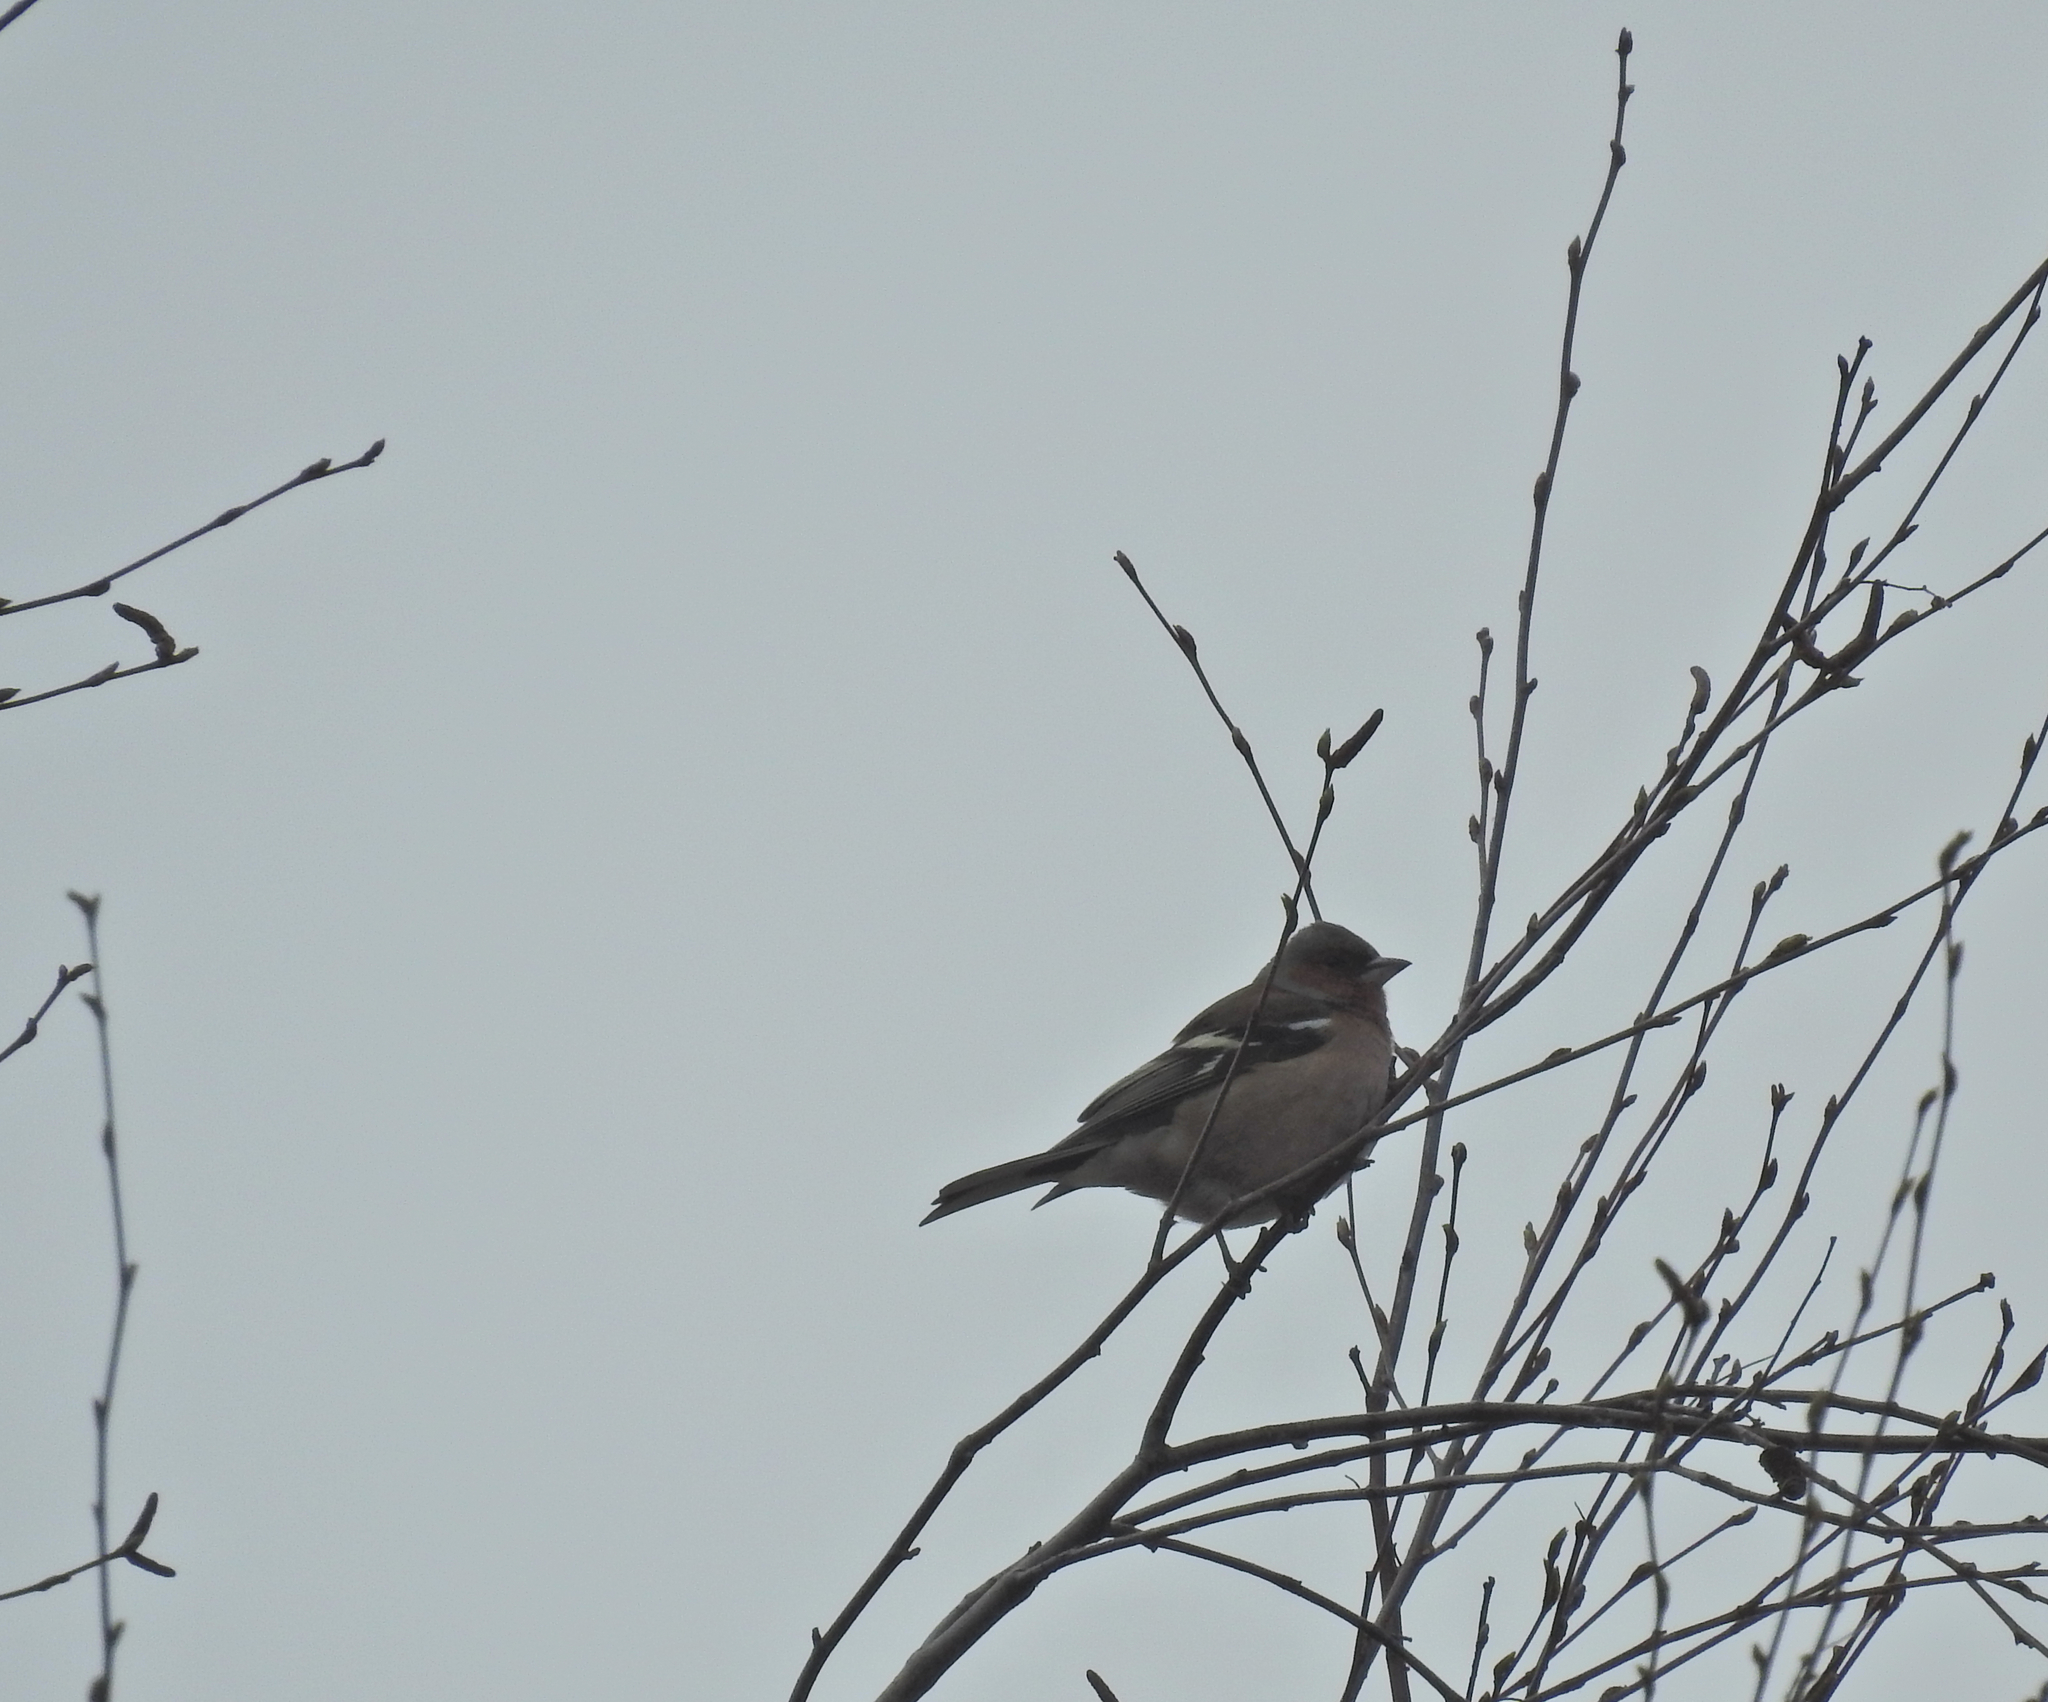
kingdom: Animalia
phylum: Chordata
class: Aves
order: Passeriformes
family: Fringillidae
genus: Fringilla
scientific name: Fringilla coelebs
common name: Common chaffinch
